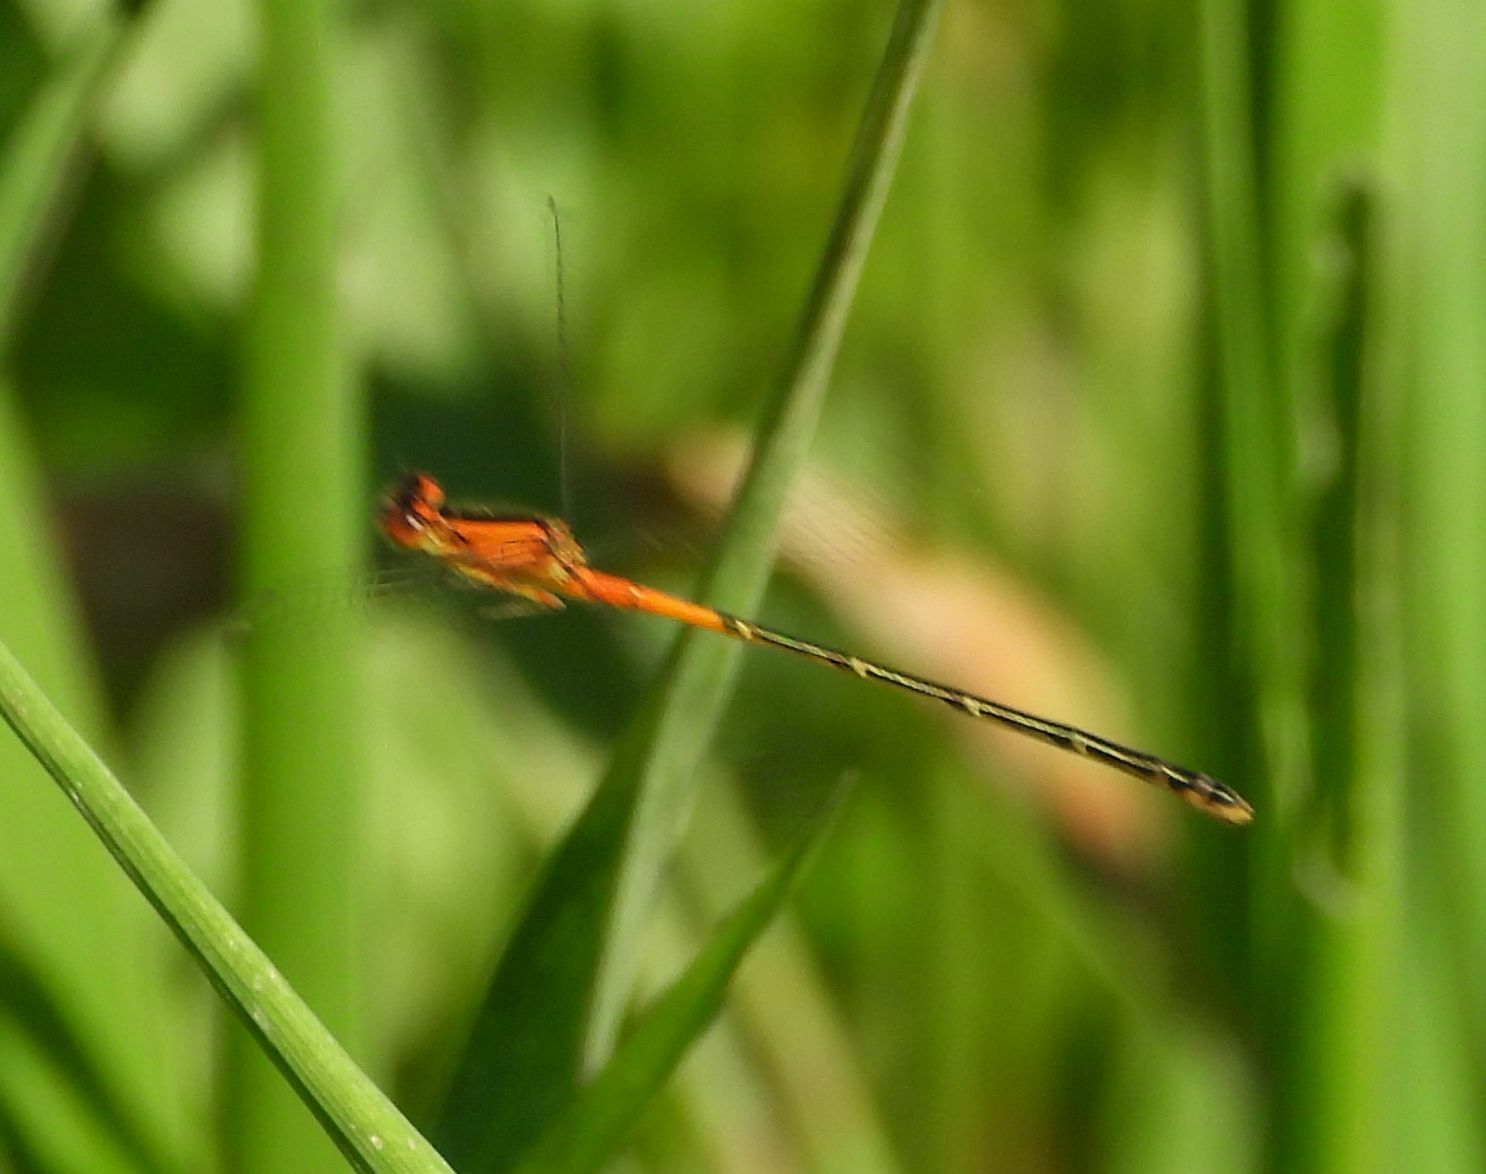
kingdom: Animalia
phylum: Arthropoda
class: Insecta
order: Odonata
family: Coenagrionidae
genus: Ischnura
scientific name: Ischnura verticalis
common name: Eastern forktail
